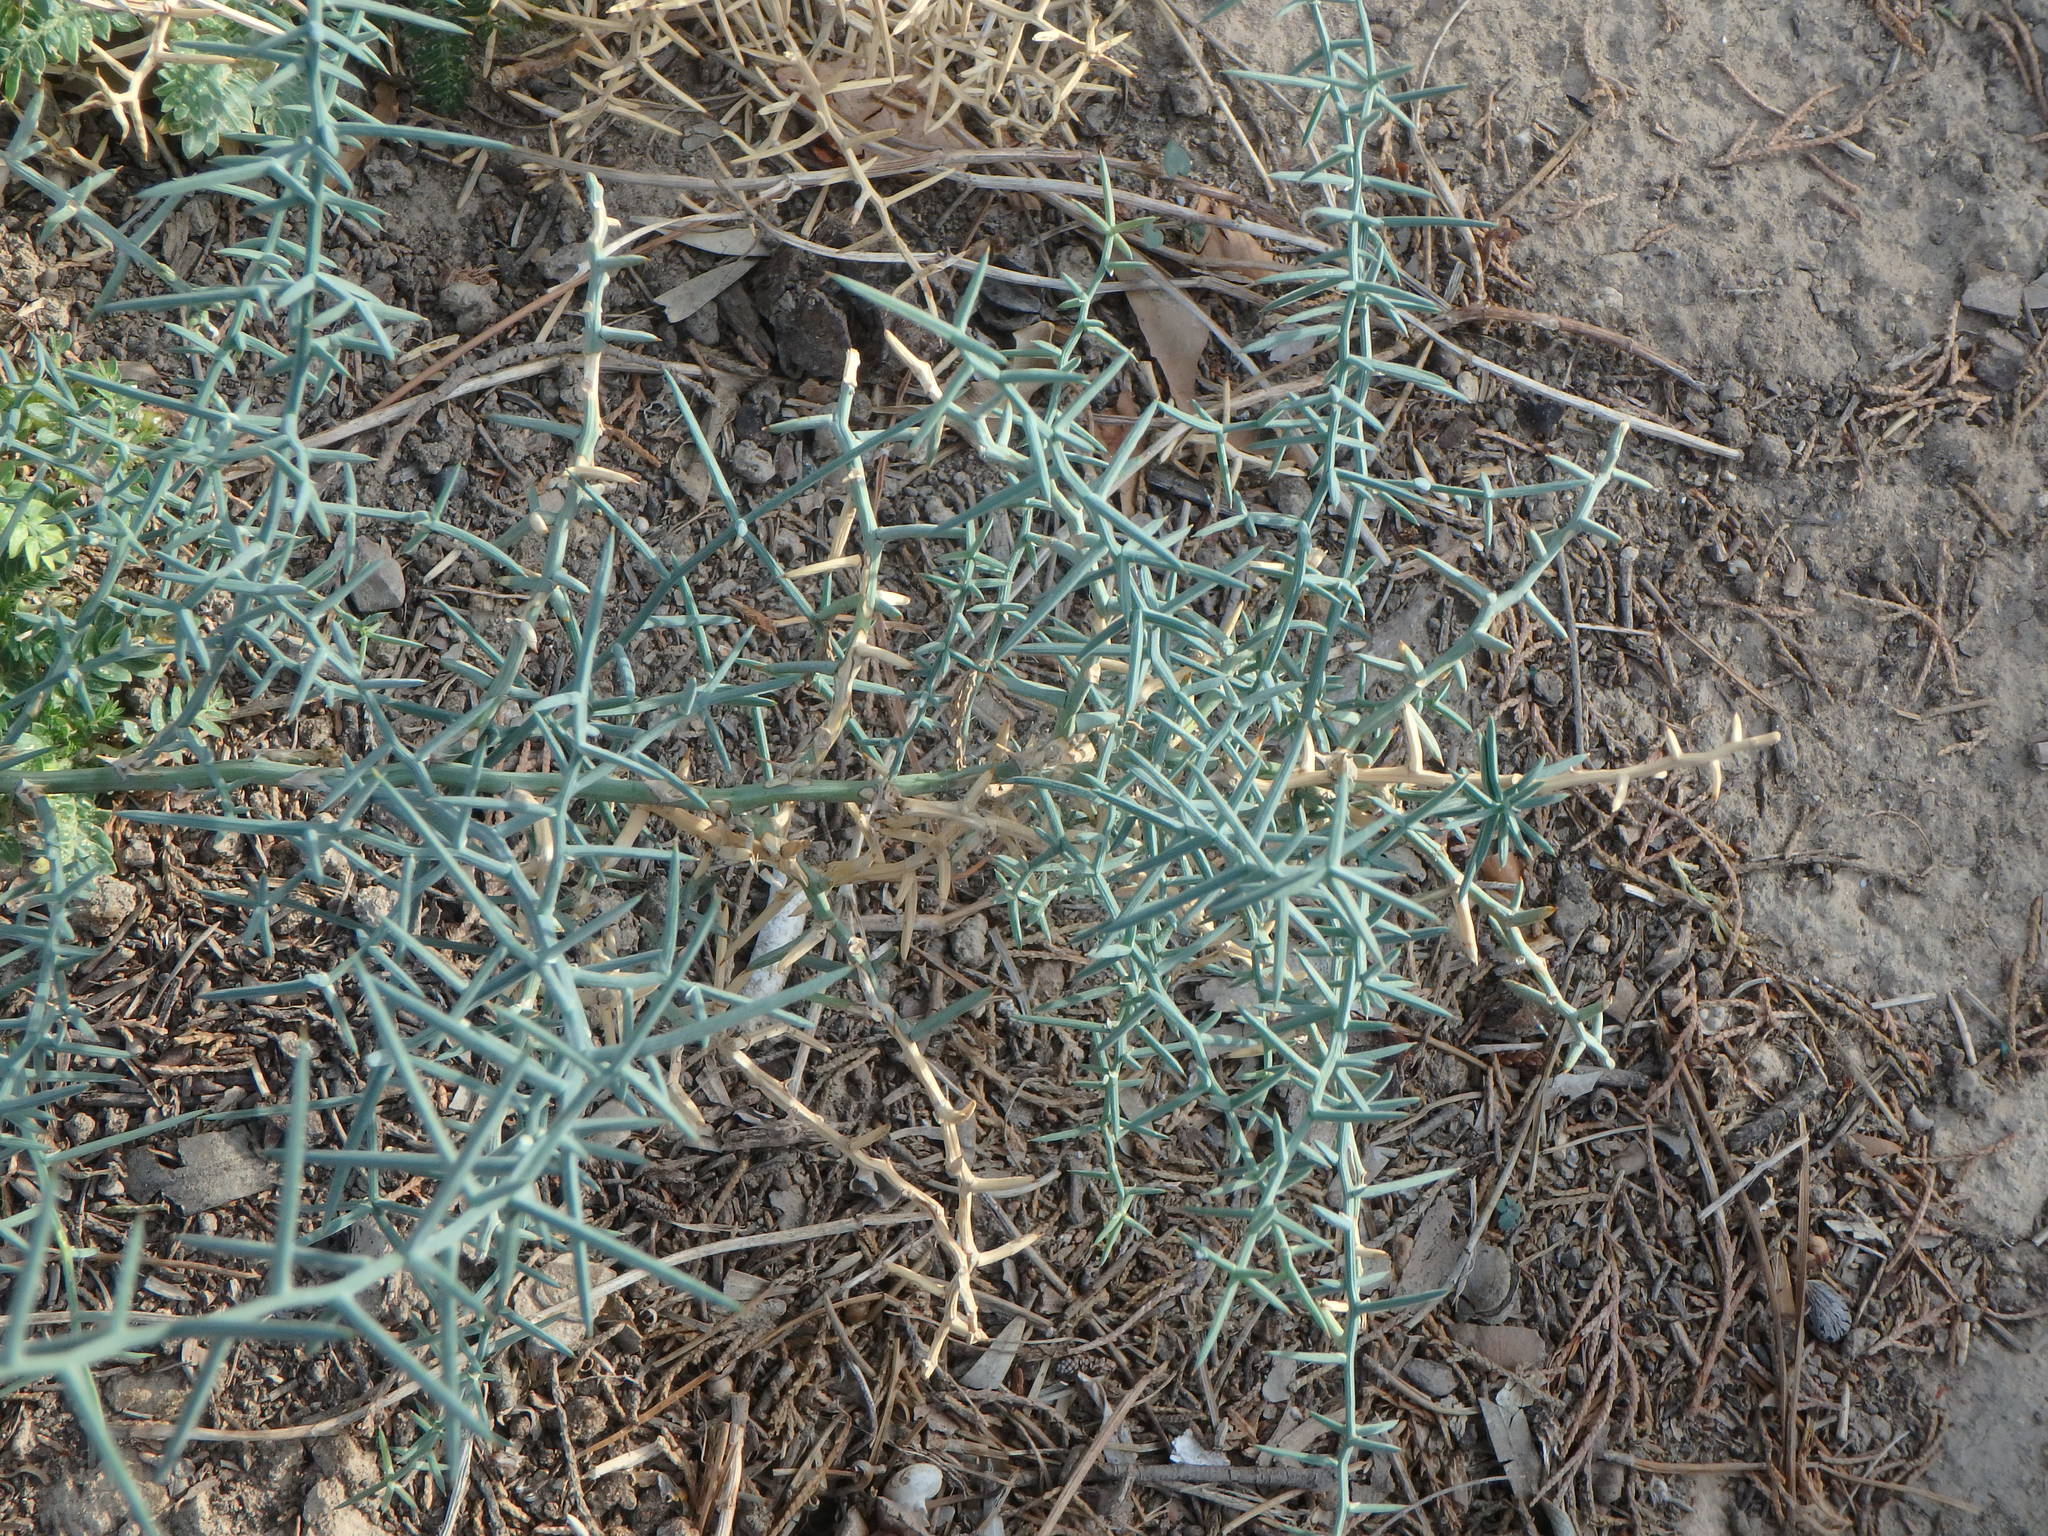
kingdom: Plantae
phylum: Tracheophyta
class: Liliopsida
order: Asparagales
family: Asparagaceae
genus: Asparagus
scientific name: Asparagus horridus
